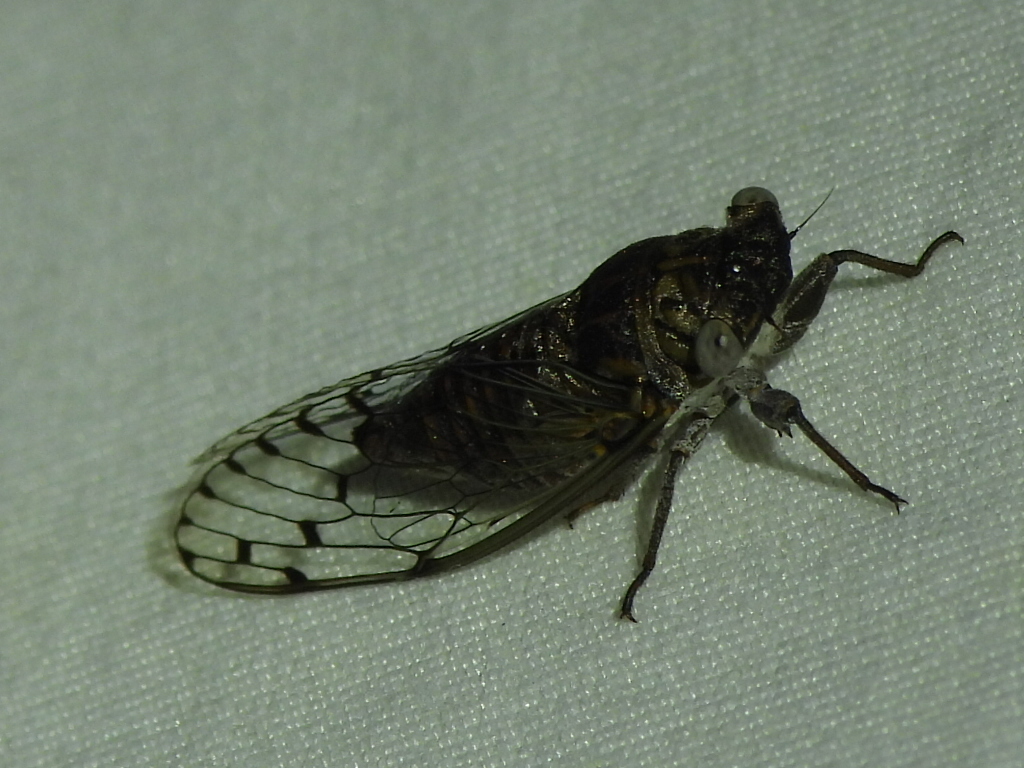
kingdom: Animalia
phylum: Arthropoda
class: Insecta
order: Hemiptera
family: Cicadidae
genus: Pacarina
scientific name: Pacarina puella
